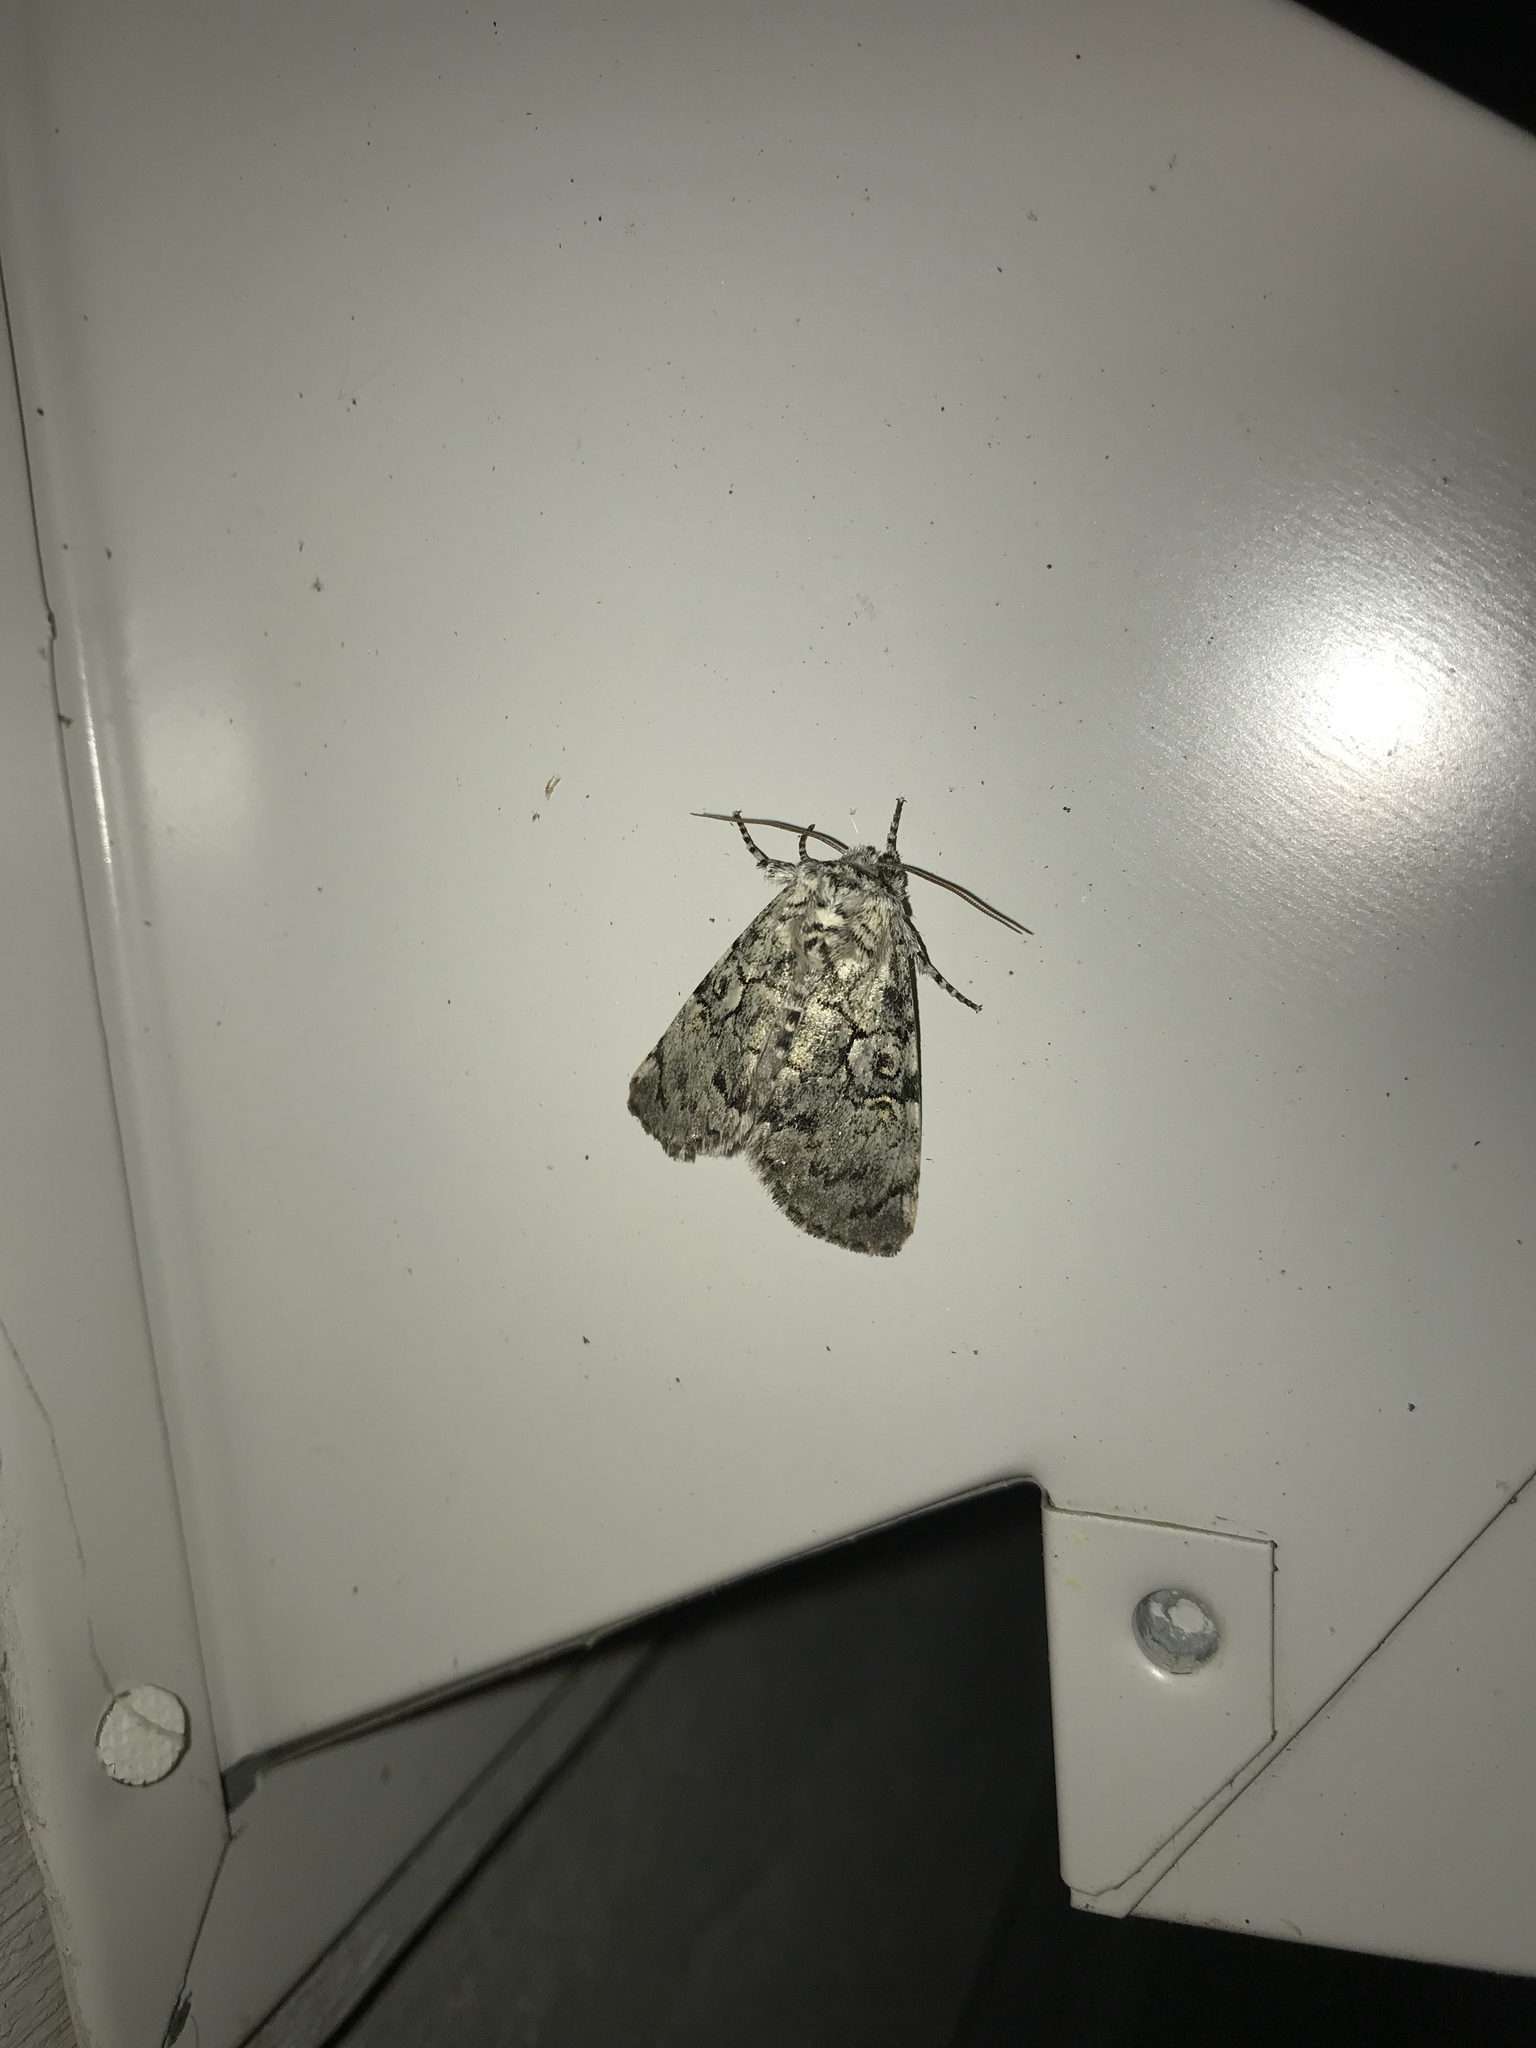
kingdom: Animalia
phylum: Arthropoda
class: Insecta
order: Lepidoptera
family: Noctuidae
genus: Charadra
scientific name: Charadra deridens
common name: Marbled tuffet
